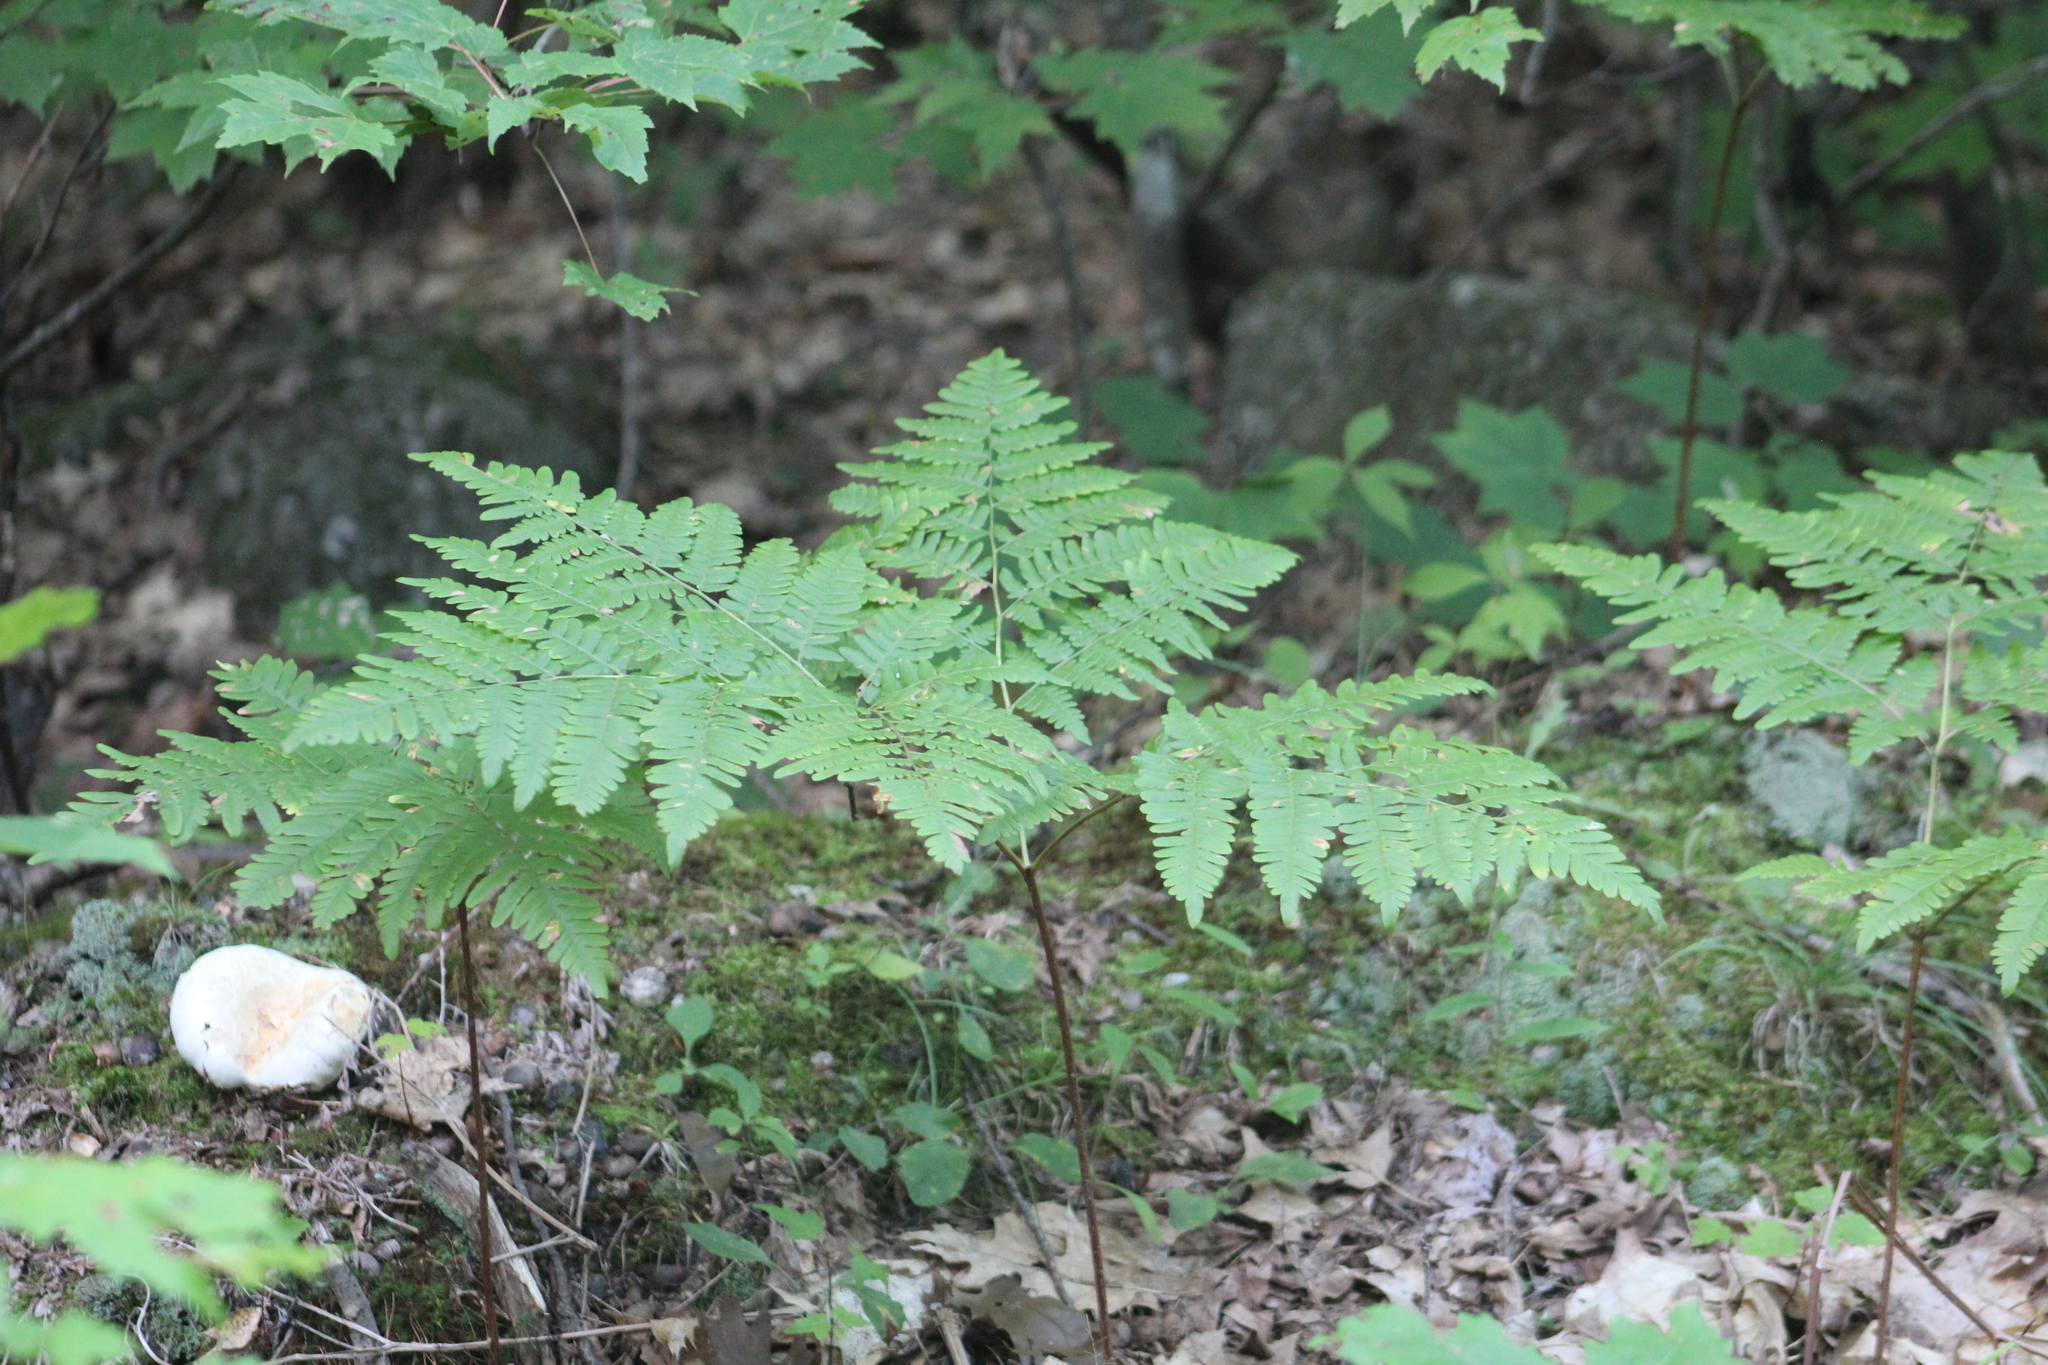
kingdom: Plantae
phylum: Tracheophyta
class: Polypodiopsida
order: Polypodiales
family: Dennstaedtiaceae
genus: Pteridium
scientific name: Pteridium aquilinum
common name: Bracken
